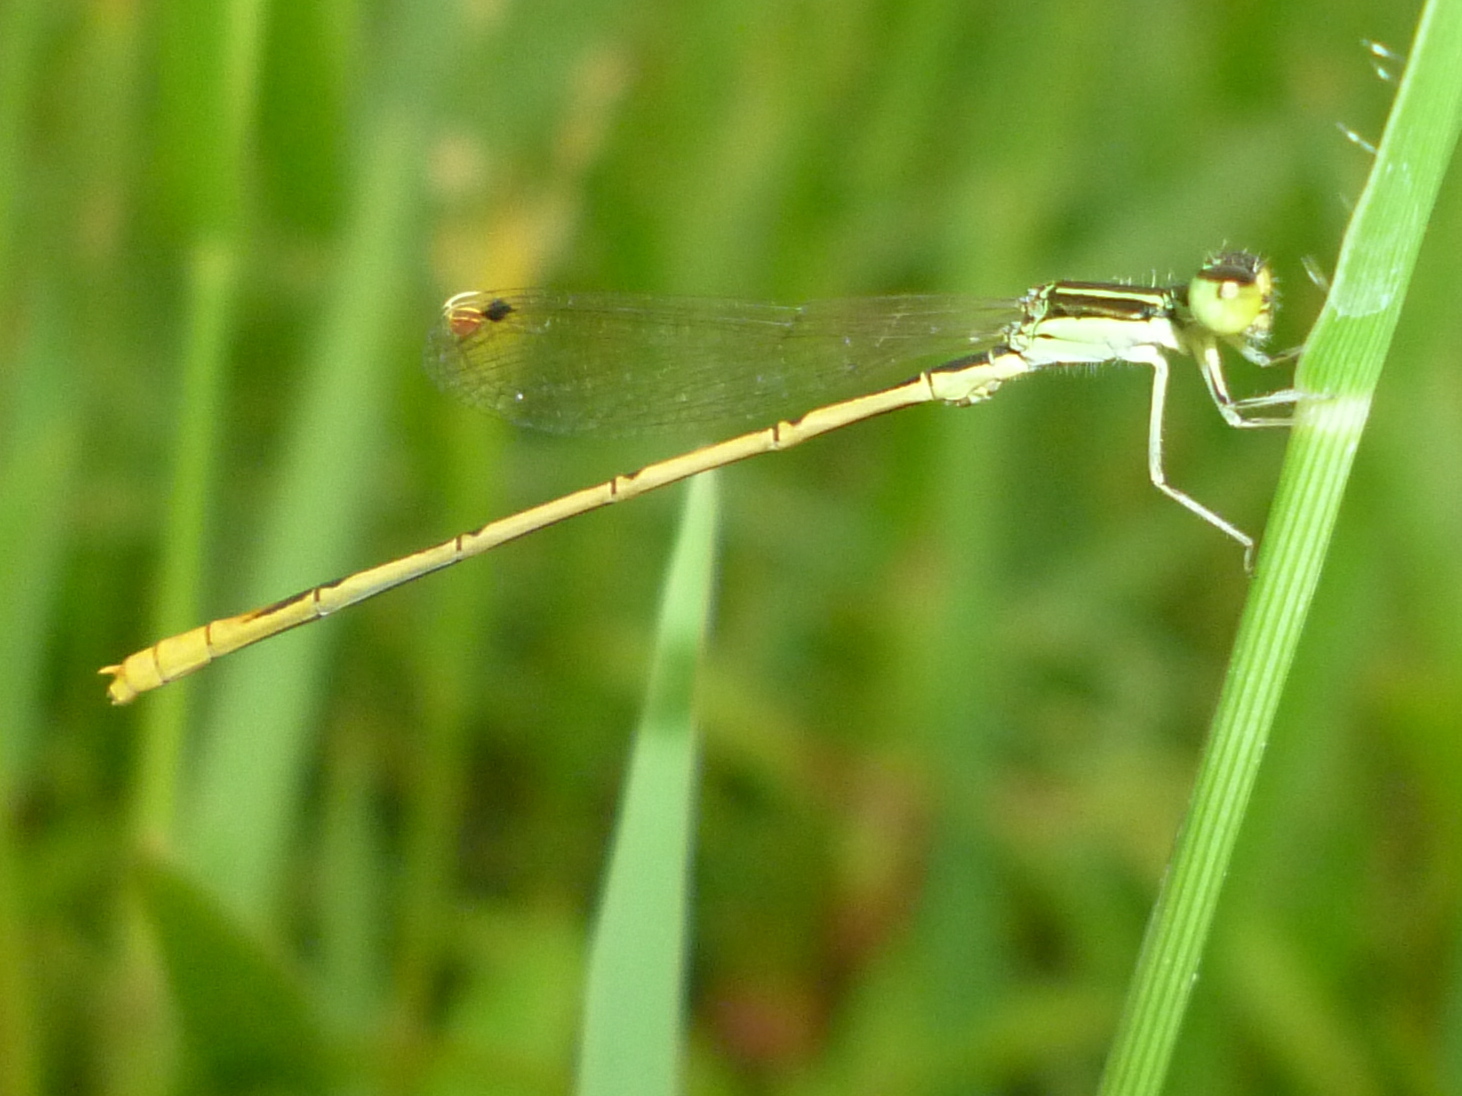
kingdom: Animalia
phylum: Arthropoda
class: Insecta
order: Odonata
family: Coenagrionidae
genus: Ischnura
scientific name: Ischnura hastata
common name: Citrine forktail
